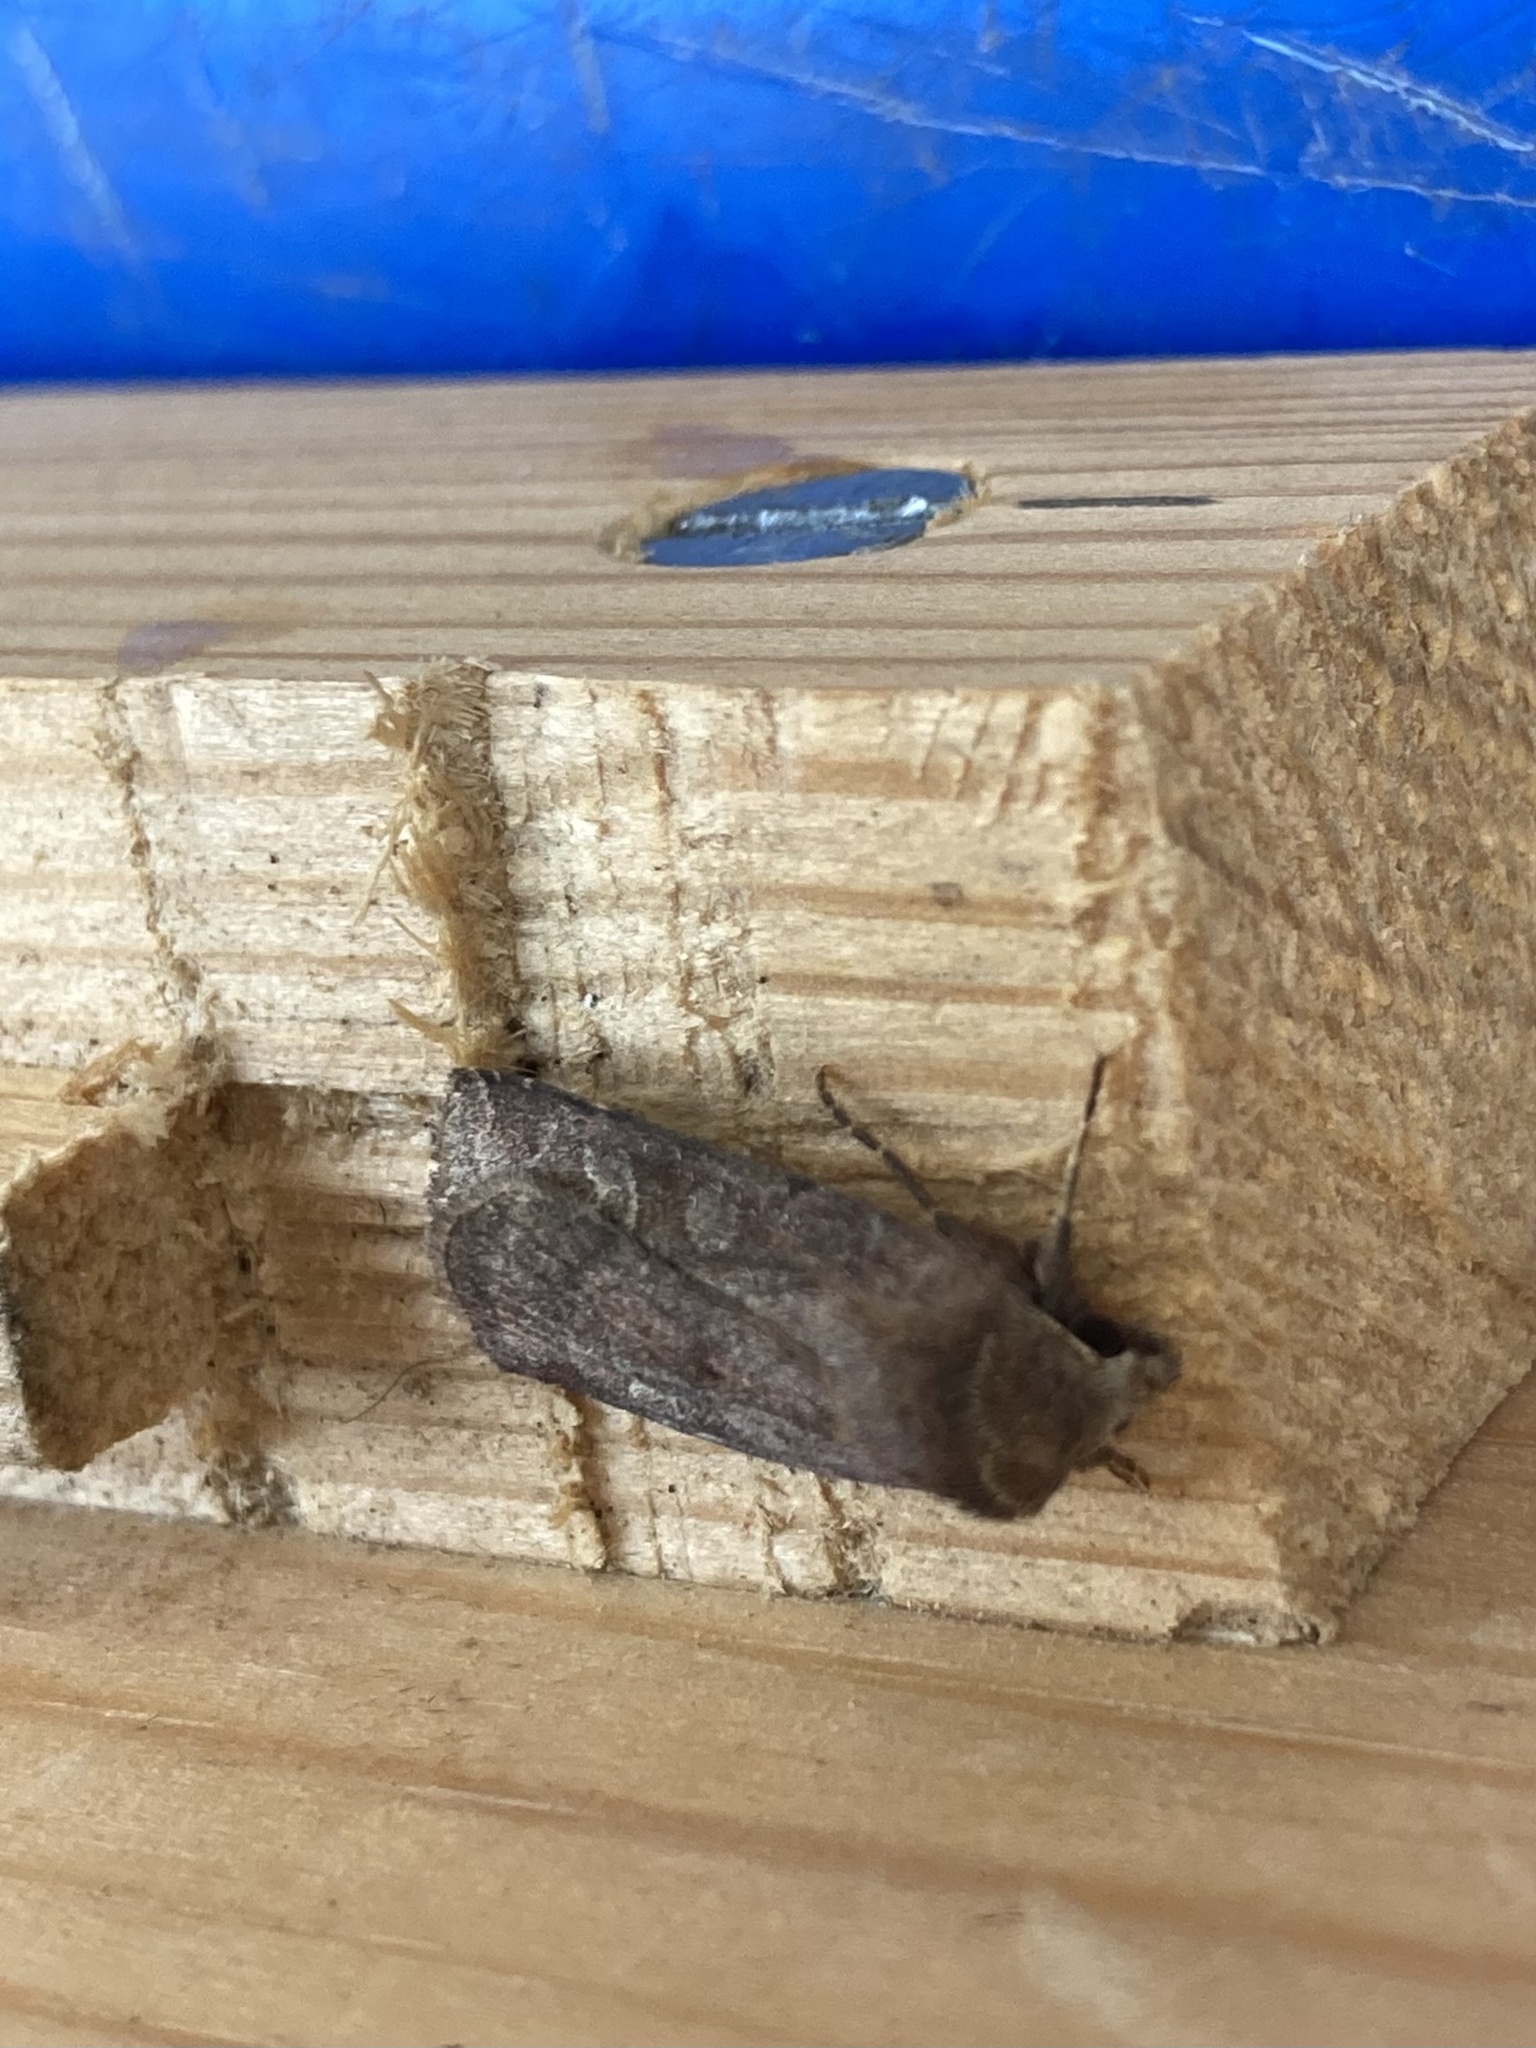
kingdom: Animalia
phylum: Arthropoda
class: Insecta
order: Lepidoptera
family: Noctuidae
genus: Xestia
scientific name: Xestia xanthographa
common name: Square-spot rustic
